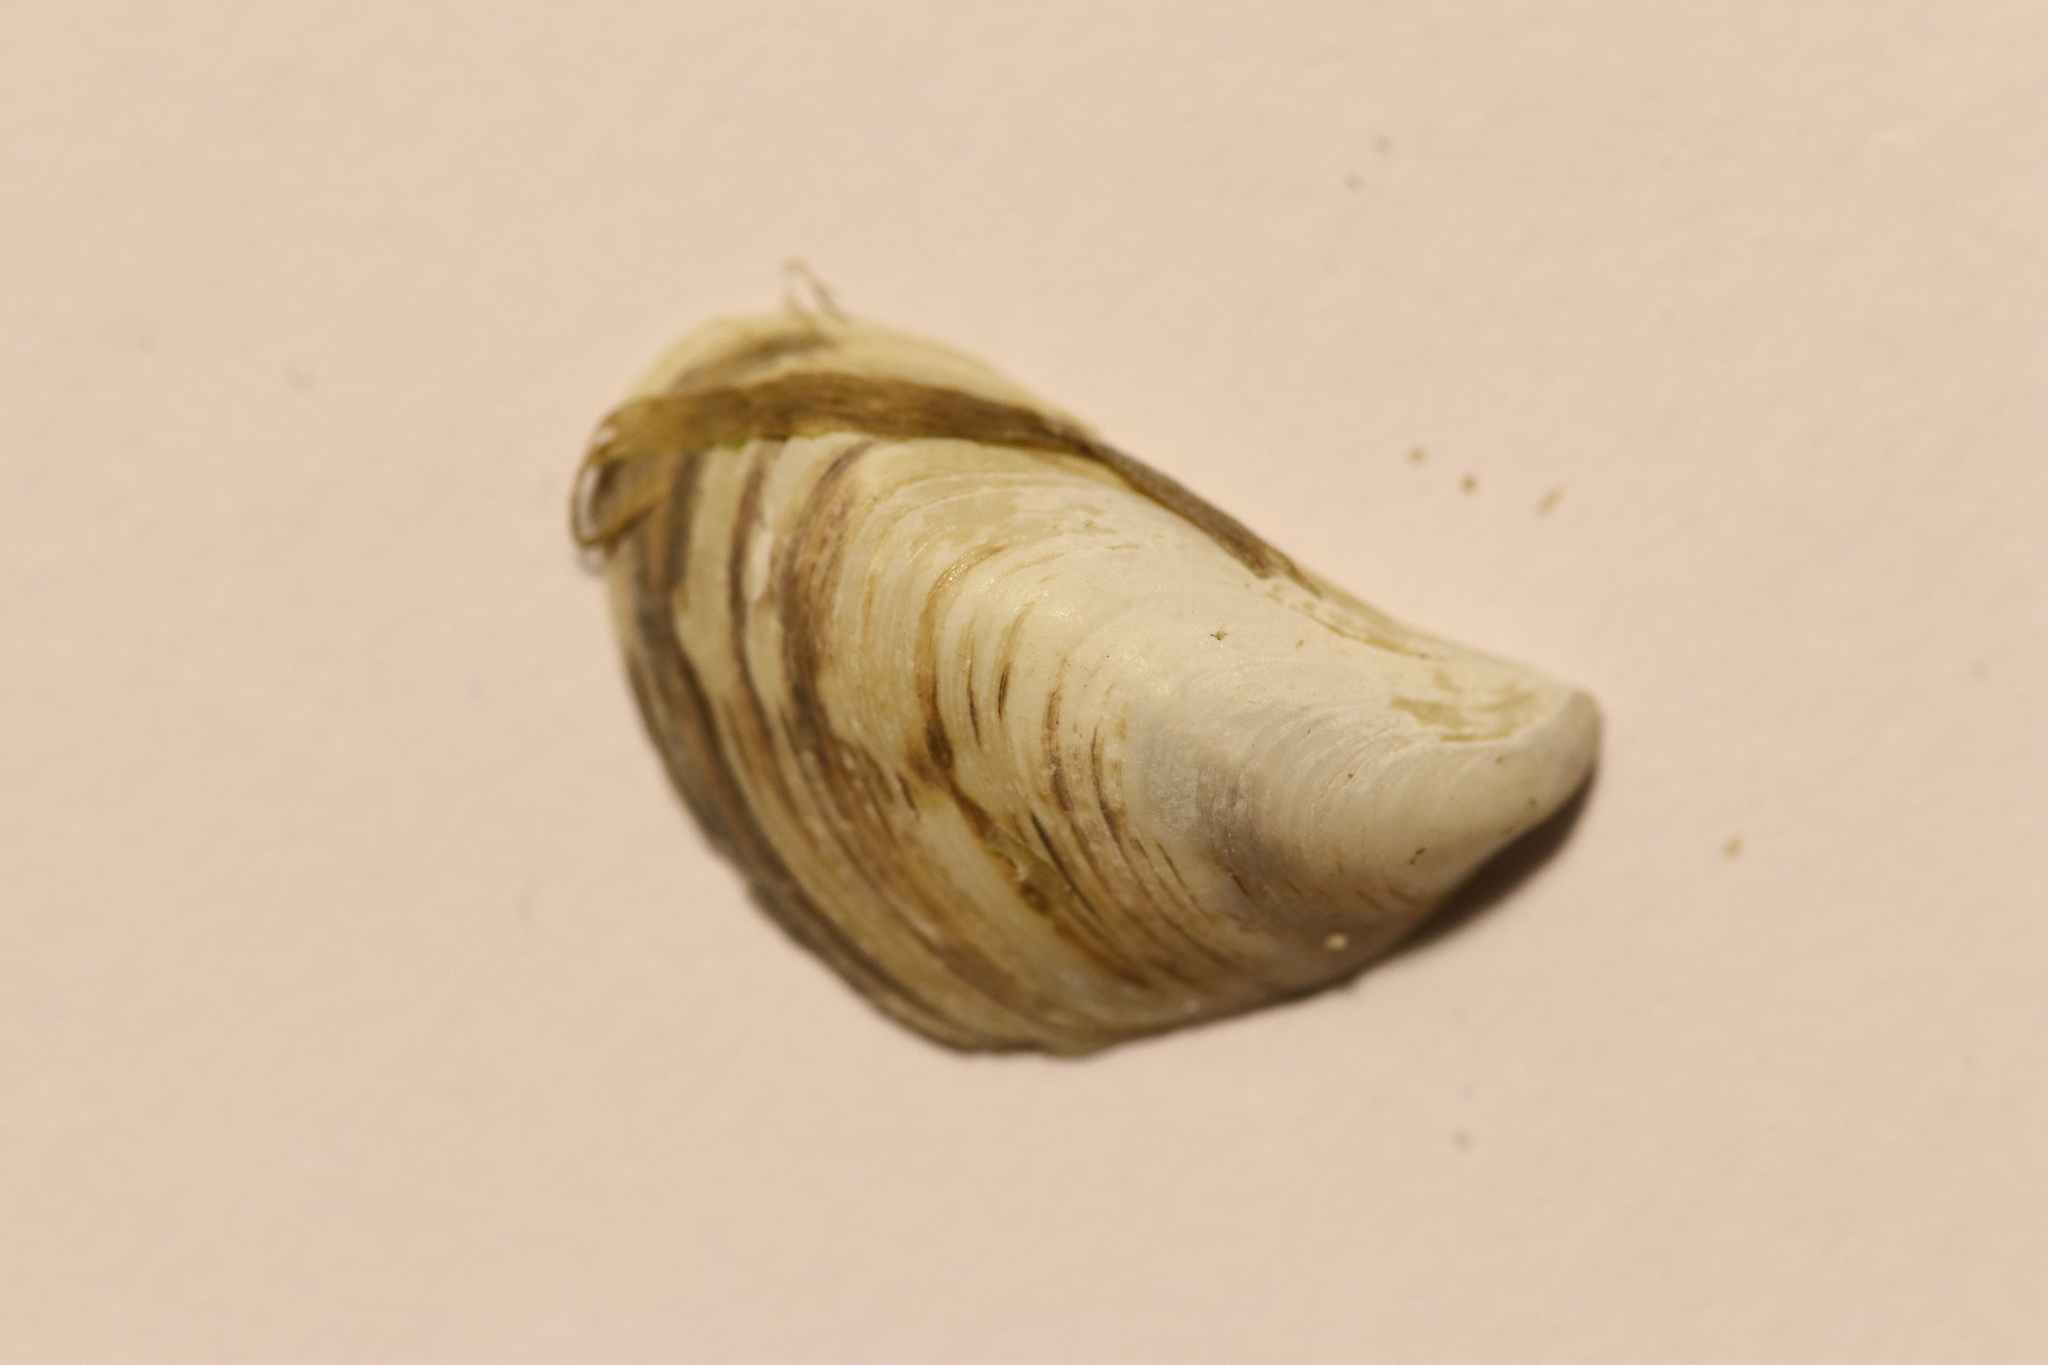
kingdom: Animalia
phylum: Mollusca
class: Bivalvia
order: Myida
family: Dreissenidae
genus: Dreissena
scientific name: Dreissena bugensis
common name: Quagga mussel
